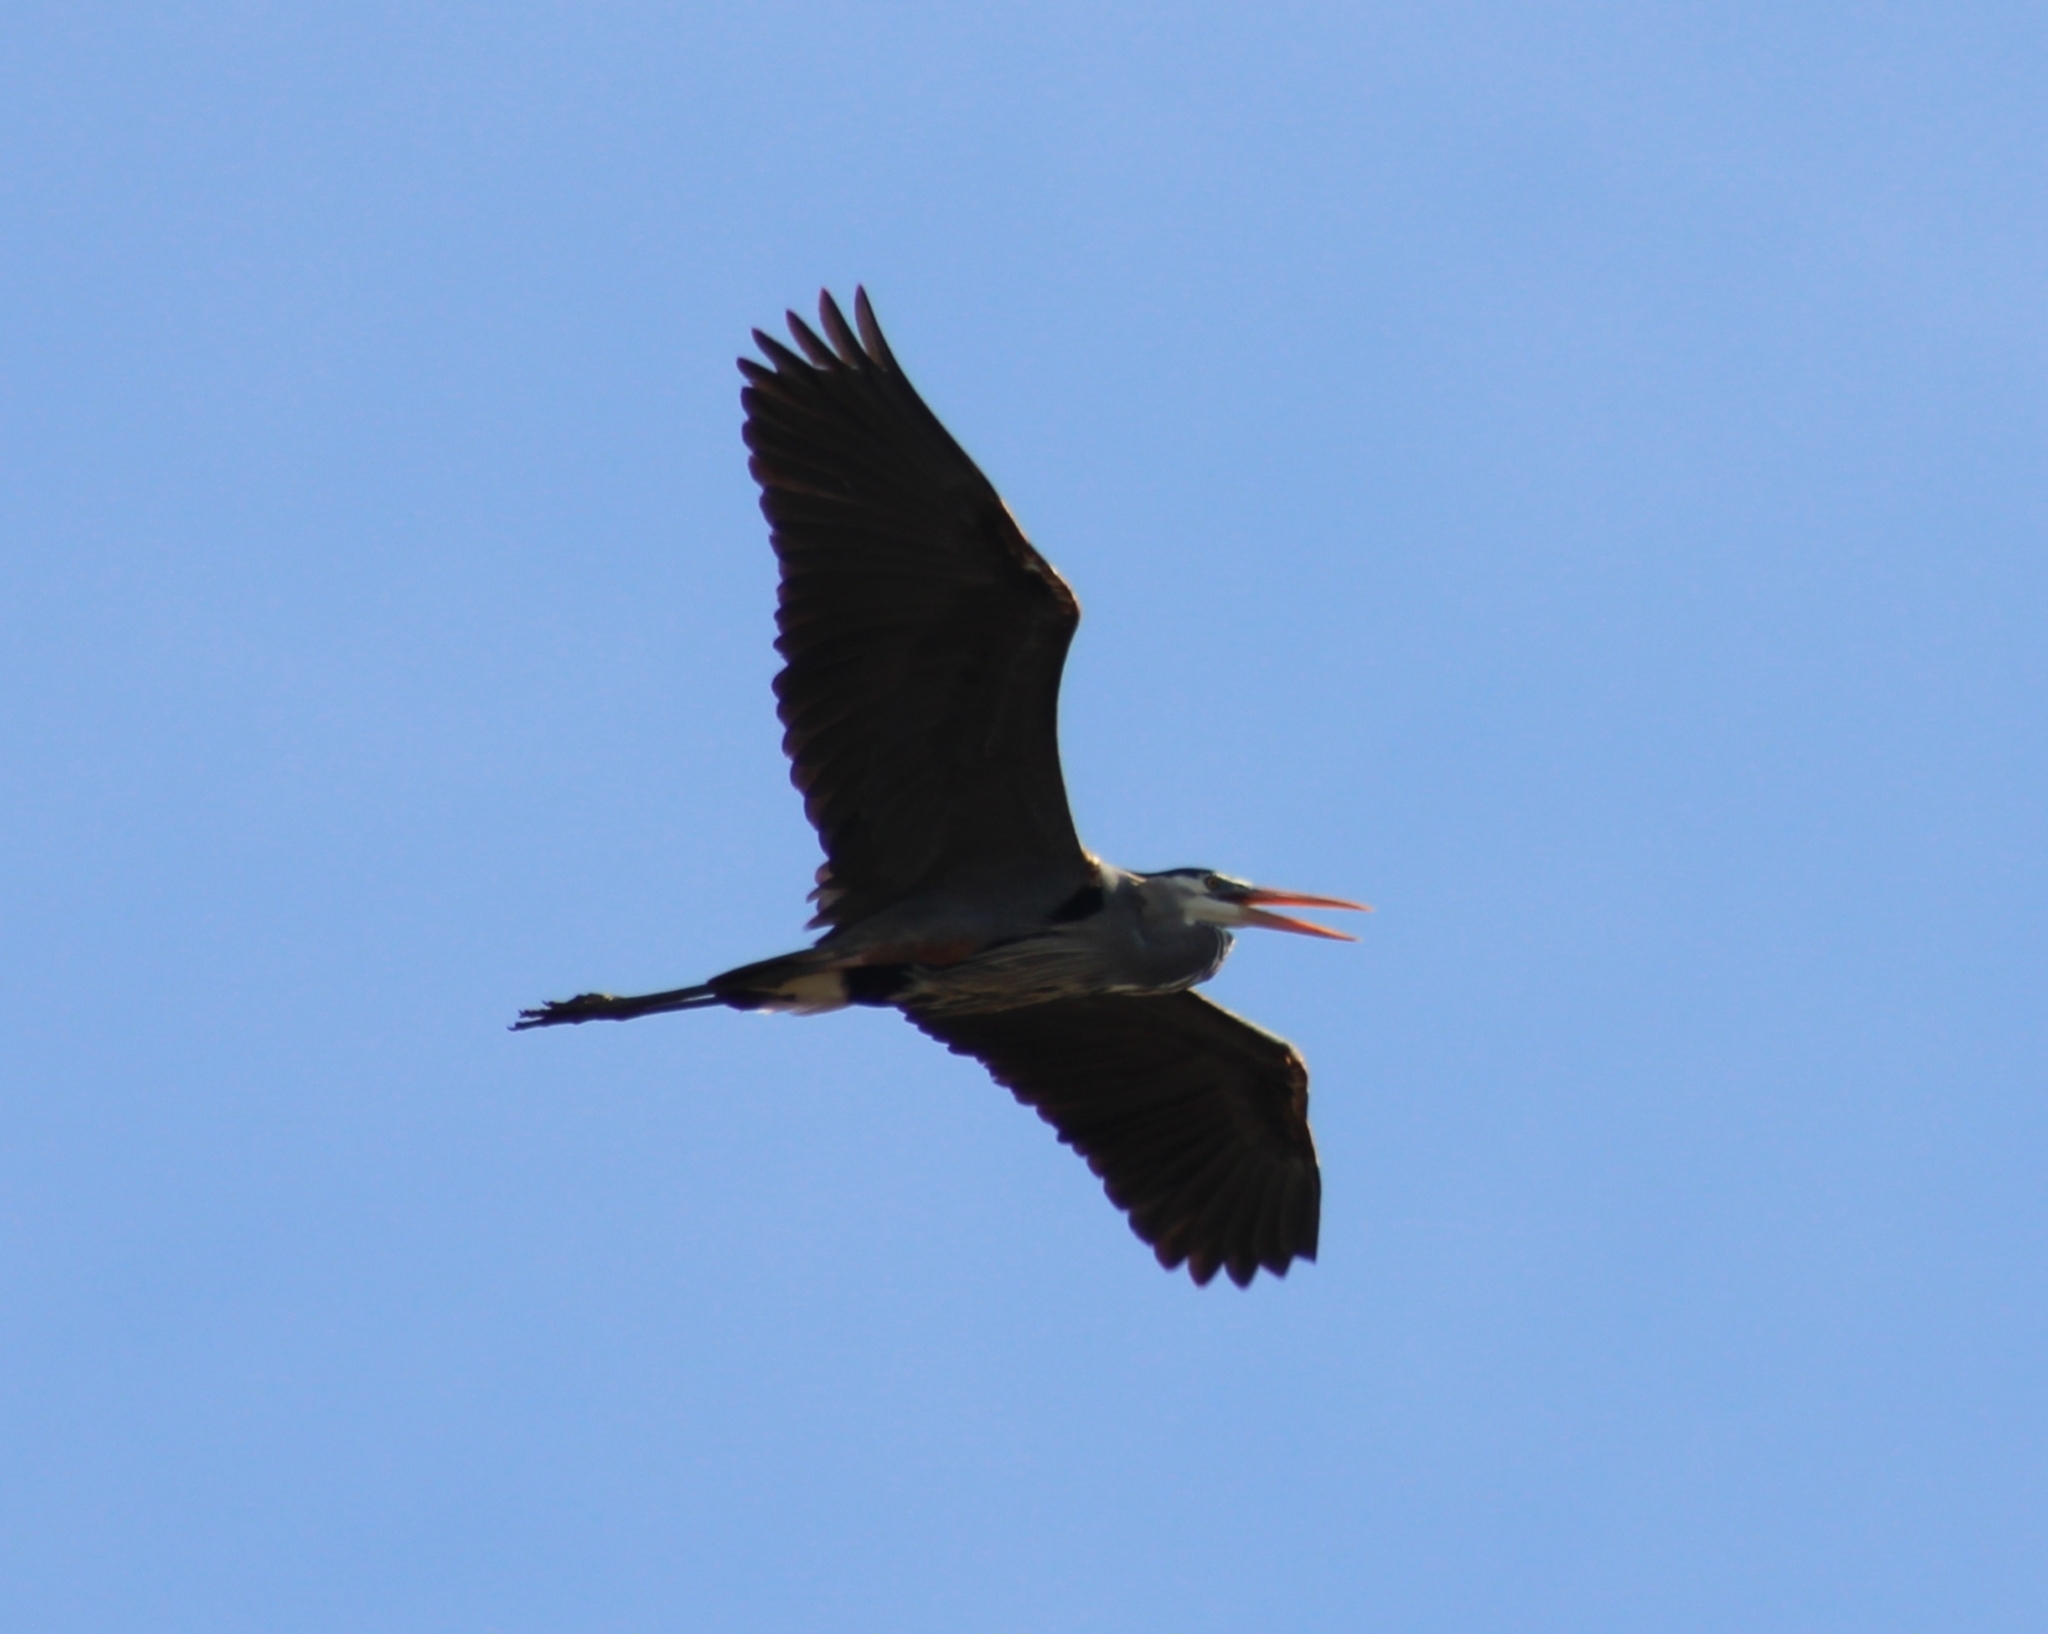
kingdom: Animalia
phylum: Chordata
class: Aves
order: Pelecaniformes
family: Ardeidae
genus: Ardea
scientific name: Ardea herodias
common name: Great blue heron
